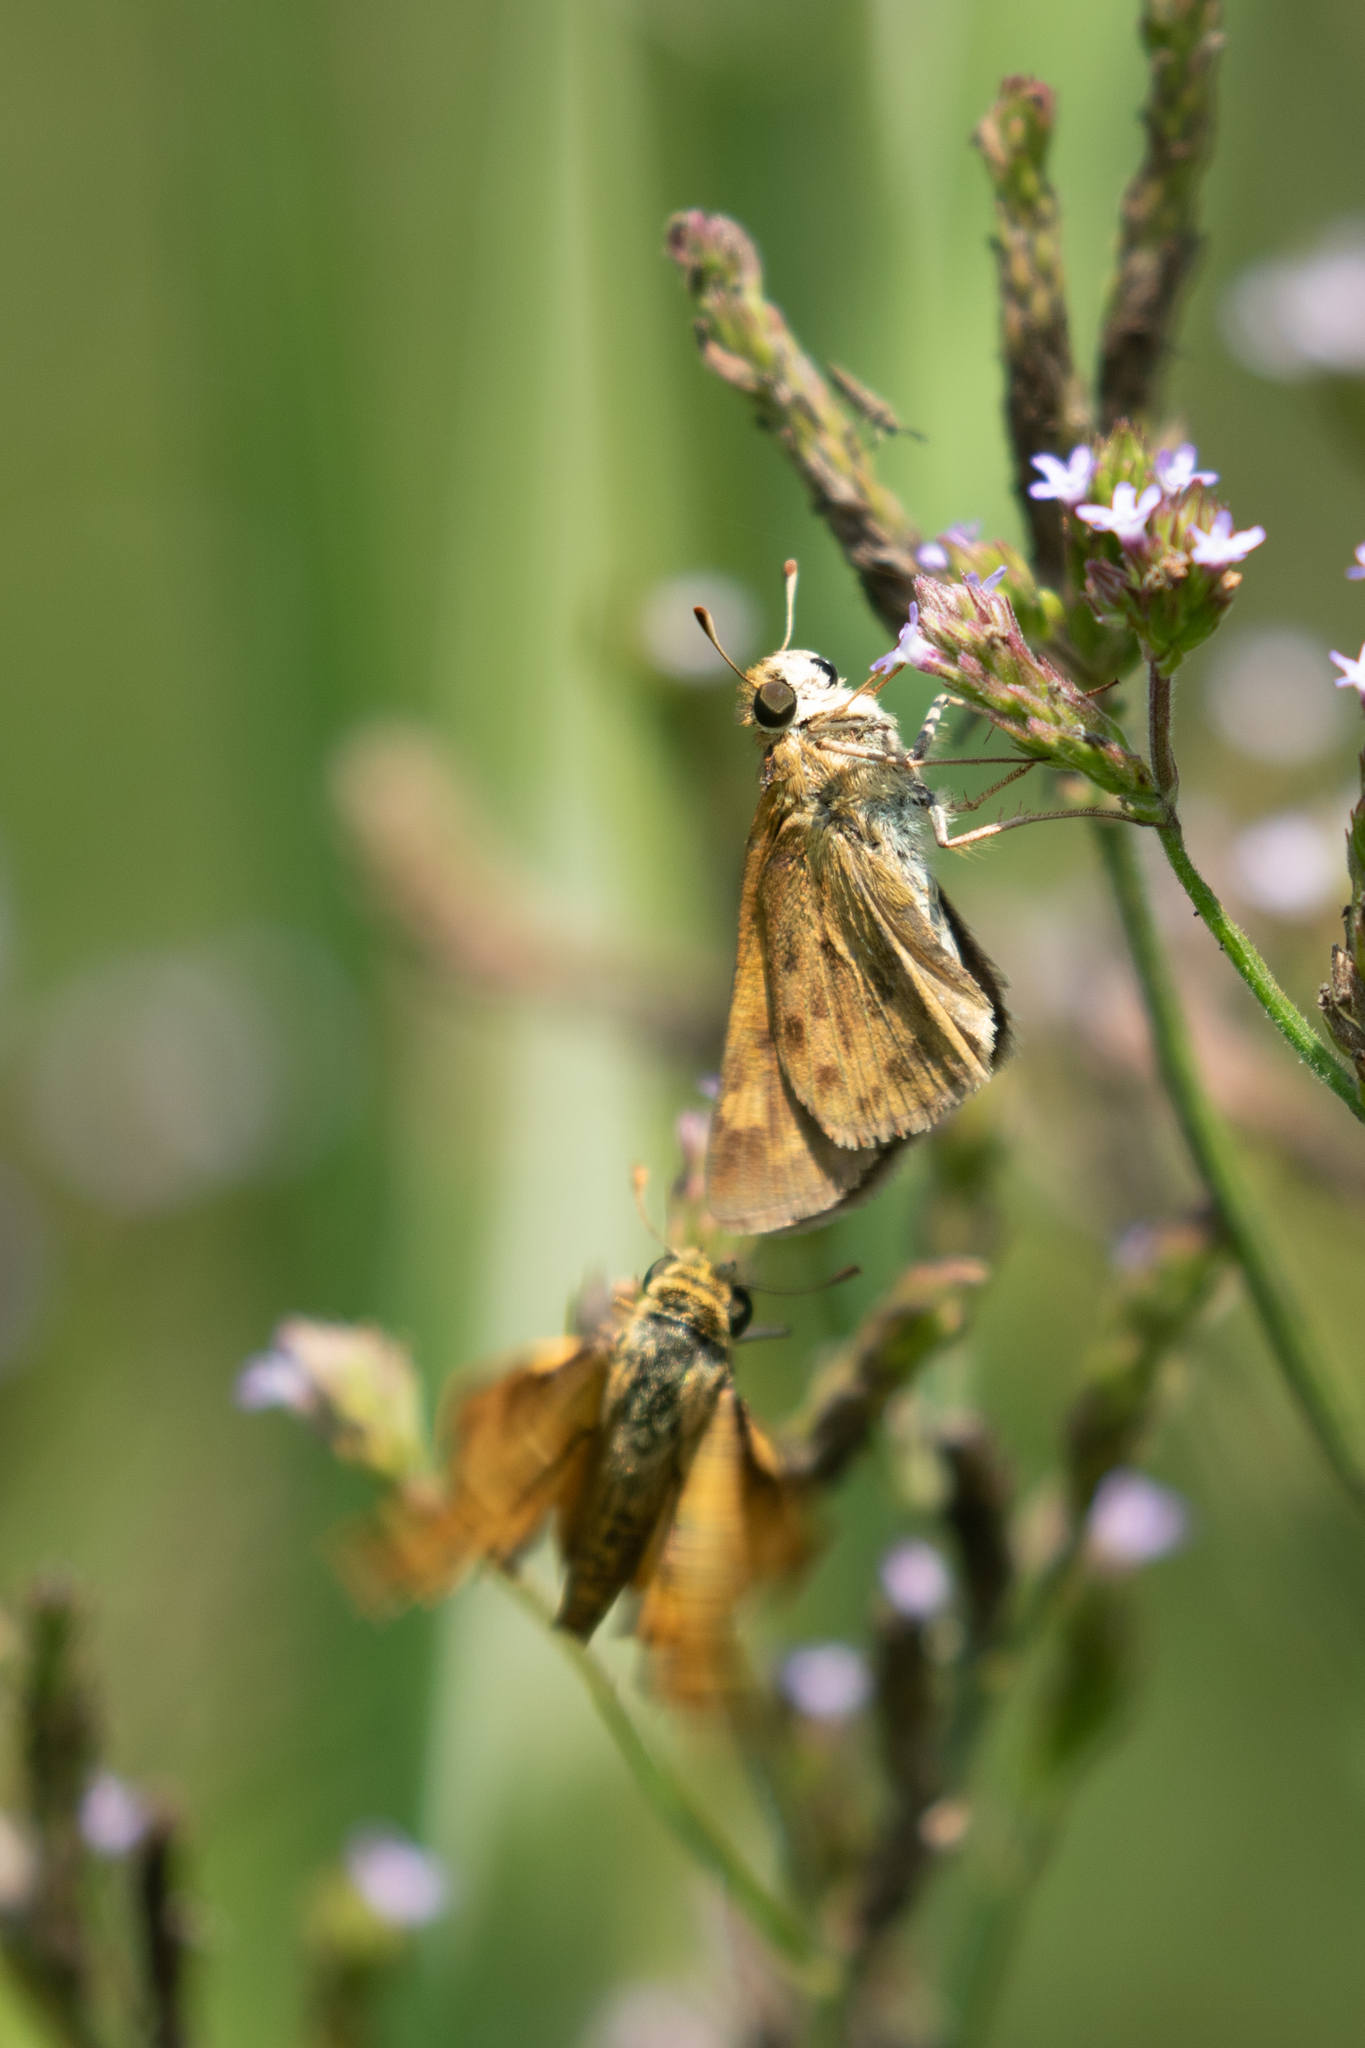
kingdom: Animalia
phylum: Arthropoda
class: Insecta
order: Lepidoptera
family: Hesperiidae
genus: Hylephila
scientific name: Hylephila phyleus
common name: Fiery skipper
